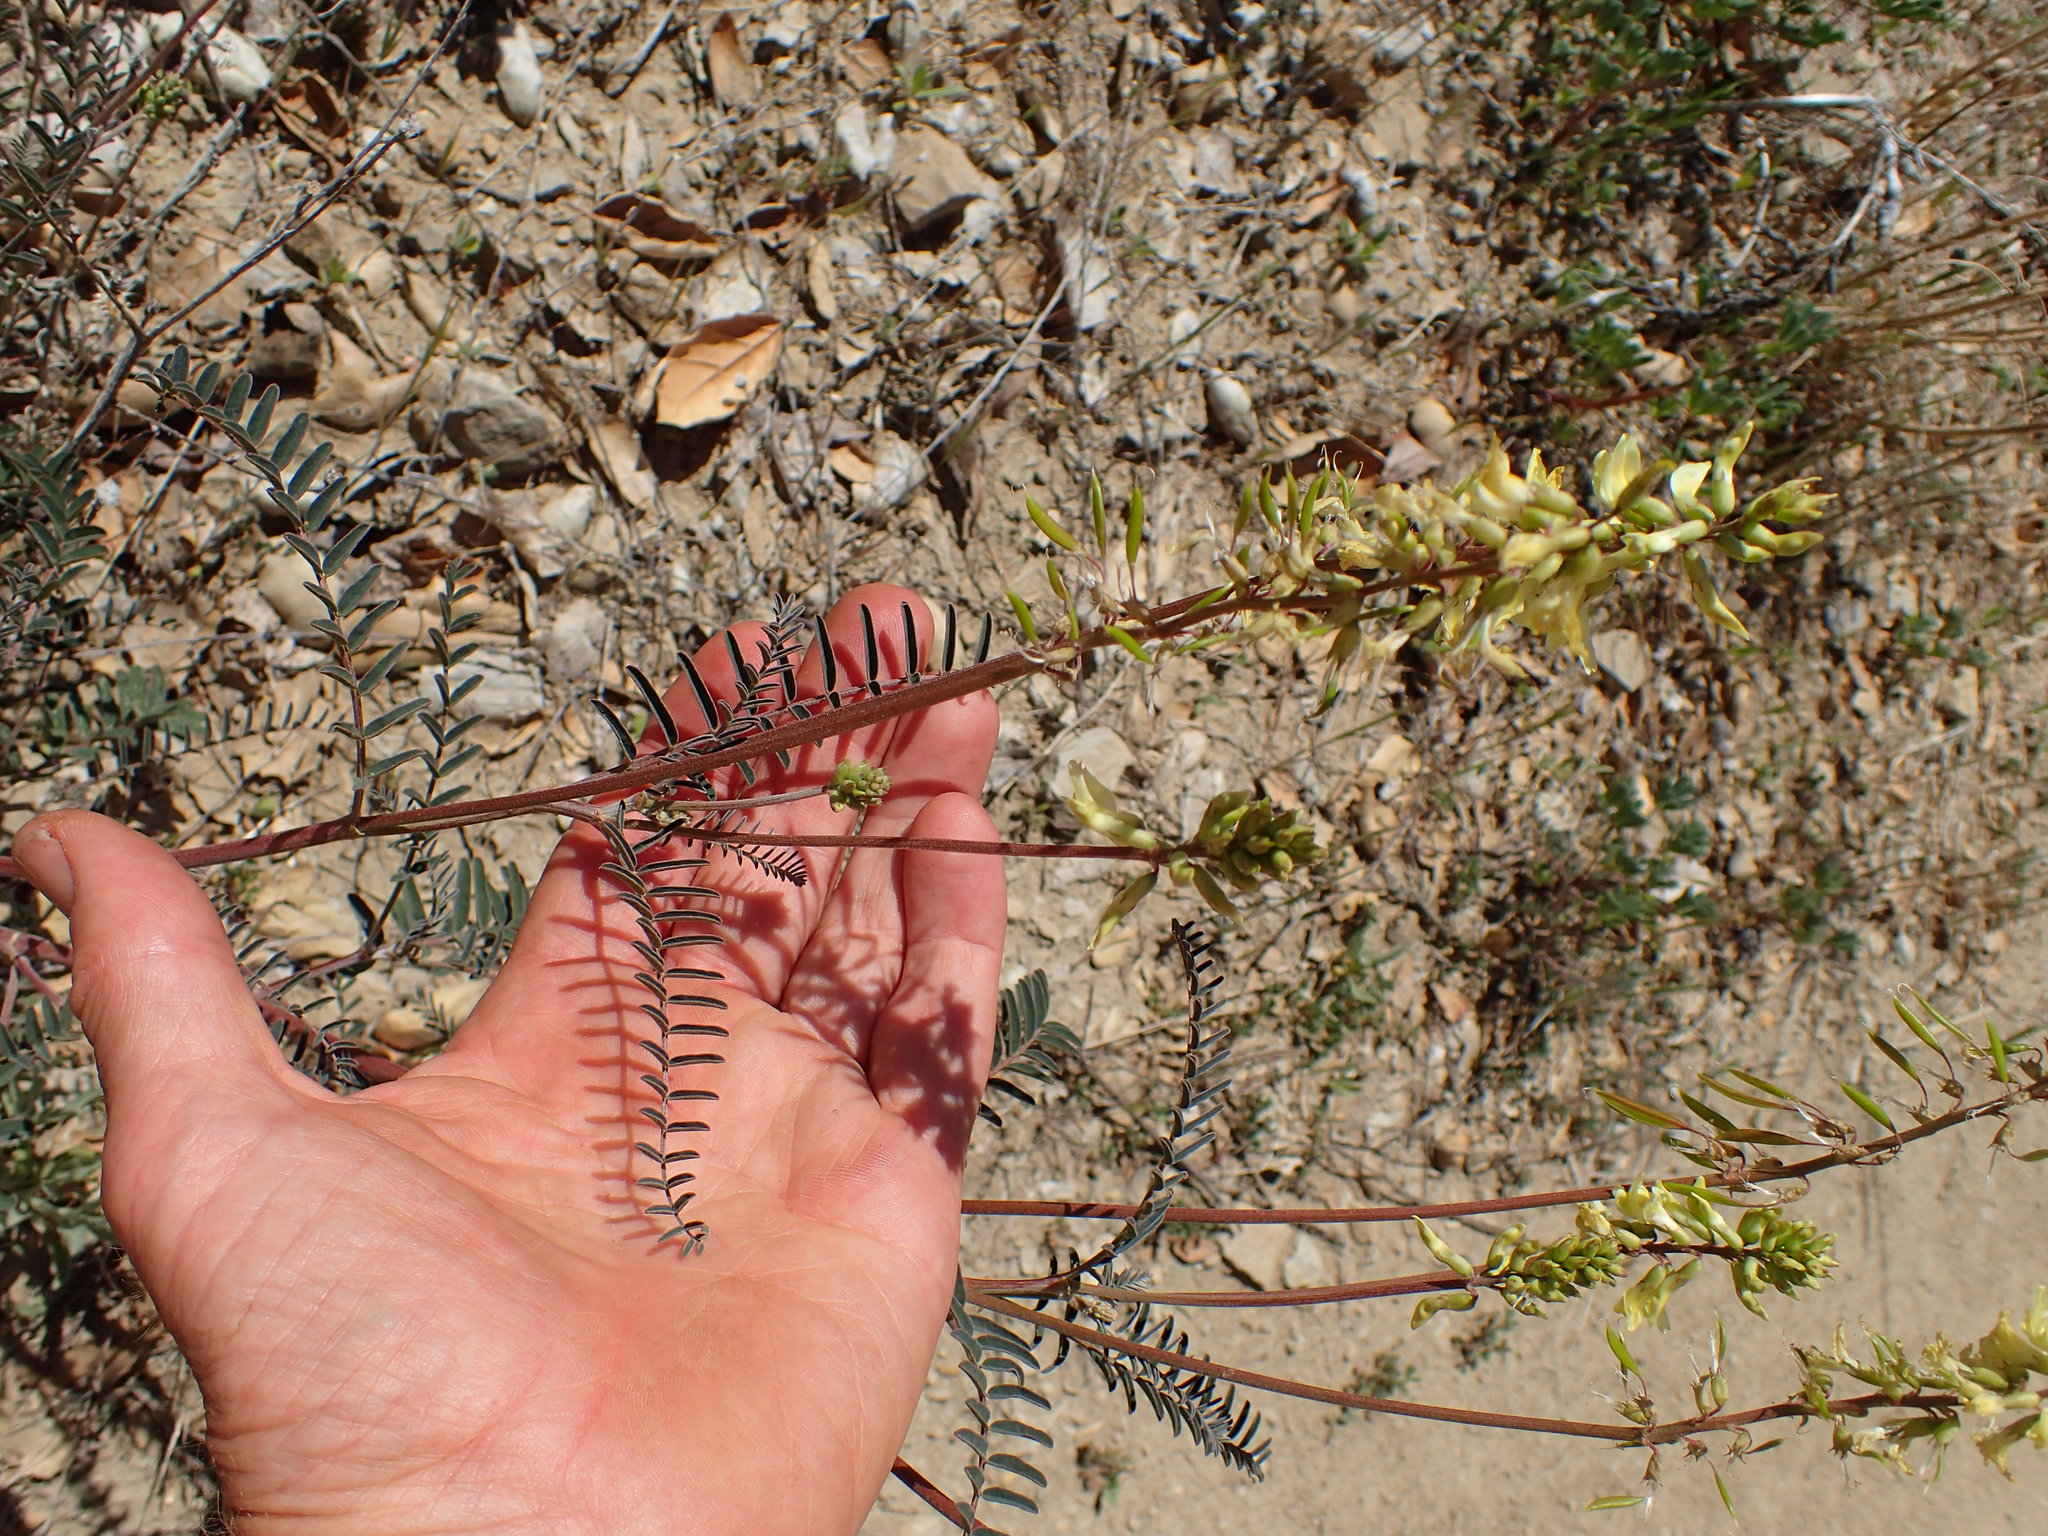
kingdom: Plantae
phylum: Tracheophyta
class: Magnoliopsida
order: Fabales
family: Fabaceae
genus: Astragalus
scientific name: Astragalus trichopodus
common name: Santa barbara milk-vetch
